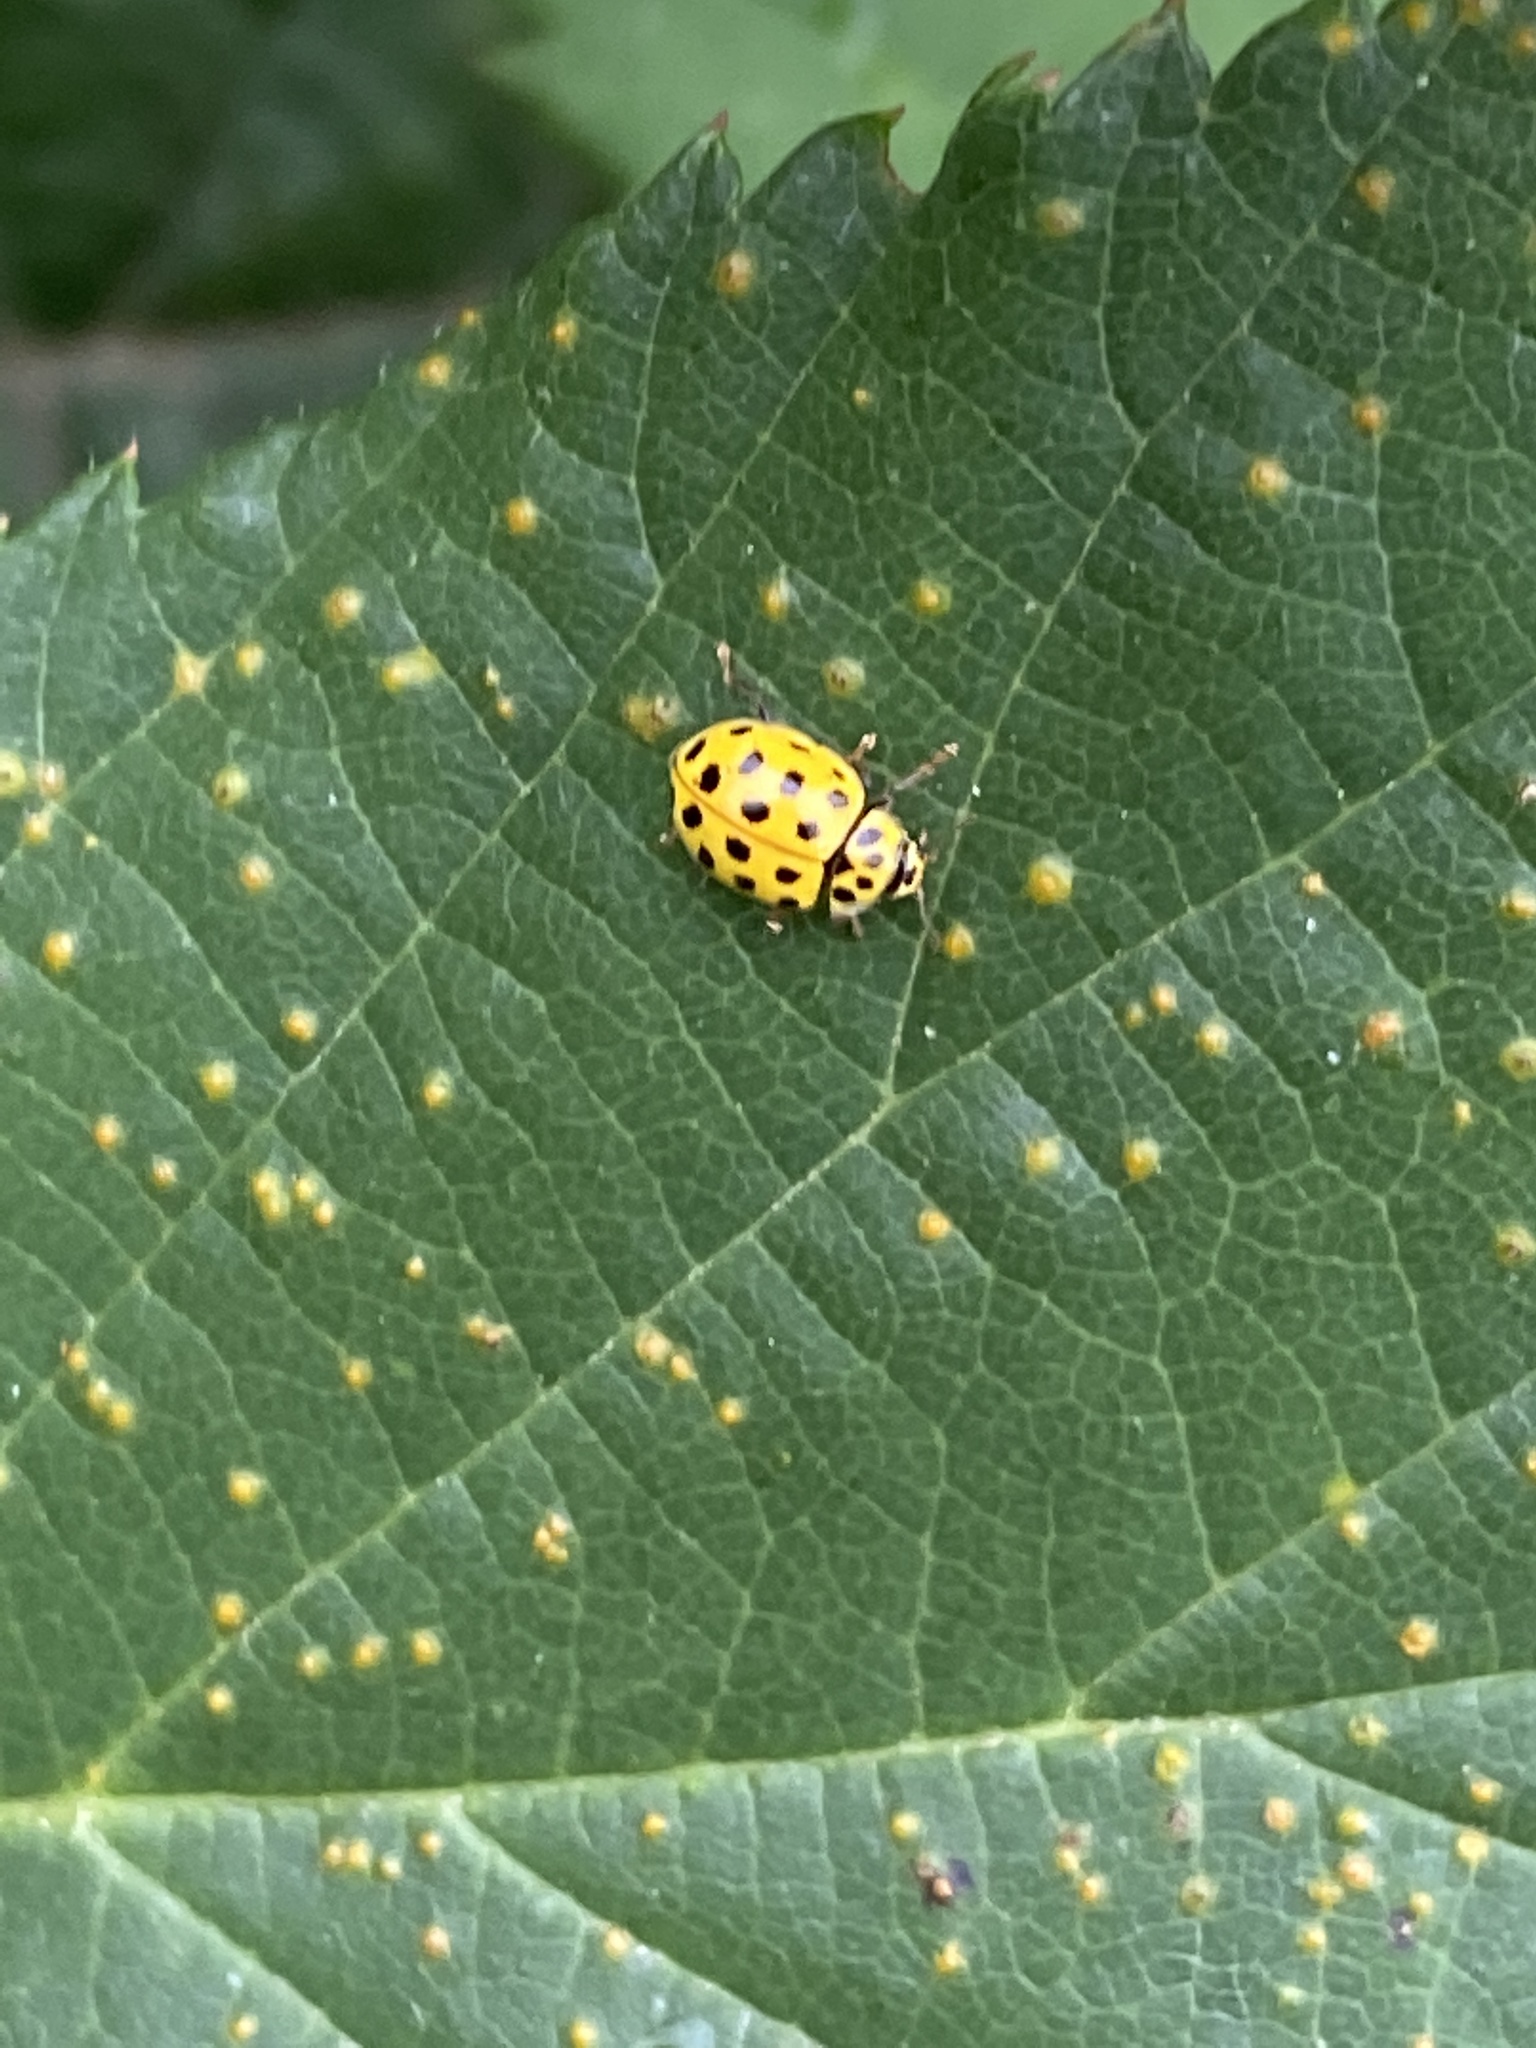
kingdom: Animalia
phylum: Arthropoda
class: Insecta
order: Coleoptera
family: Coccinellidae
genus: Psyllobora
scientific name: Psyllobora vigintiduopunctata
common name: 22-spot ladybird
